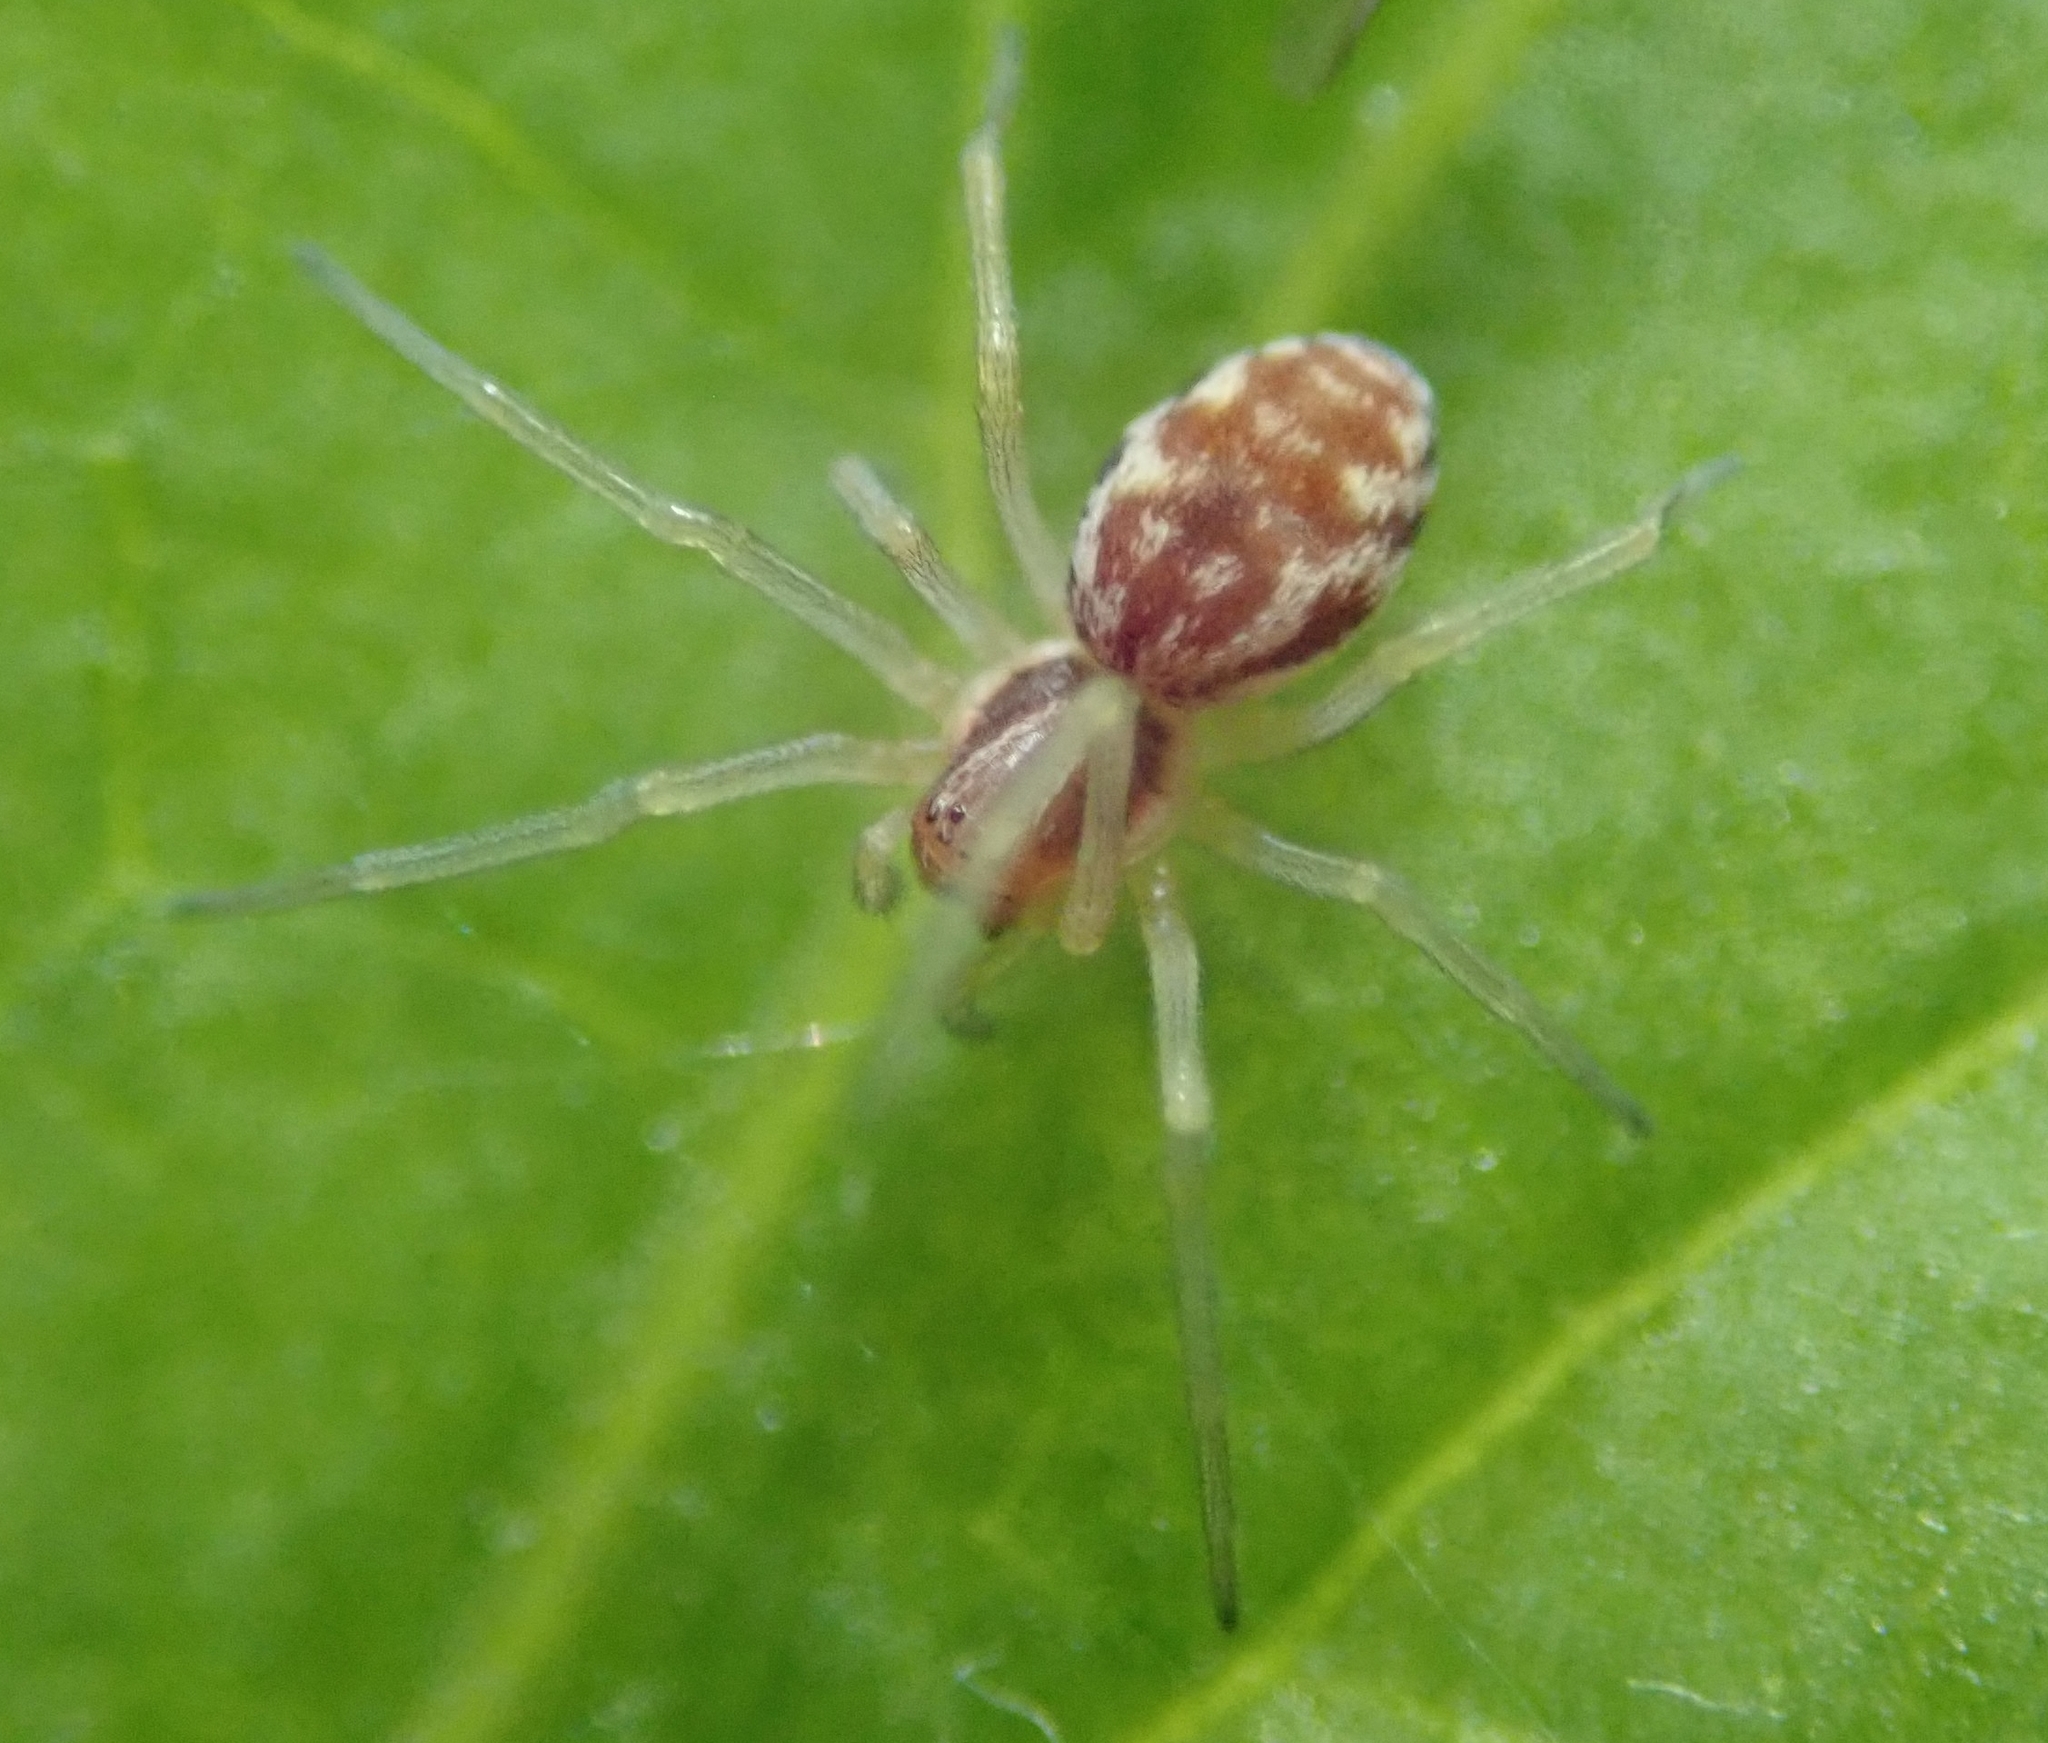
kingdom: Animalia
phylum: Arthropoda
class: Arachnida
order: Araneae
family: Dictynidae
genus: Nigma
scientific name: Nigma flavescens
